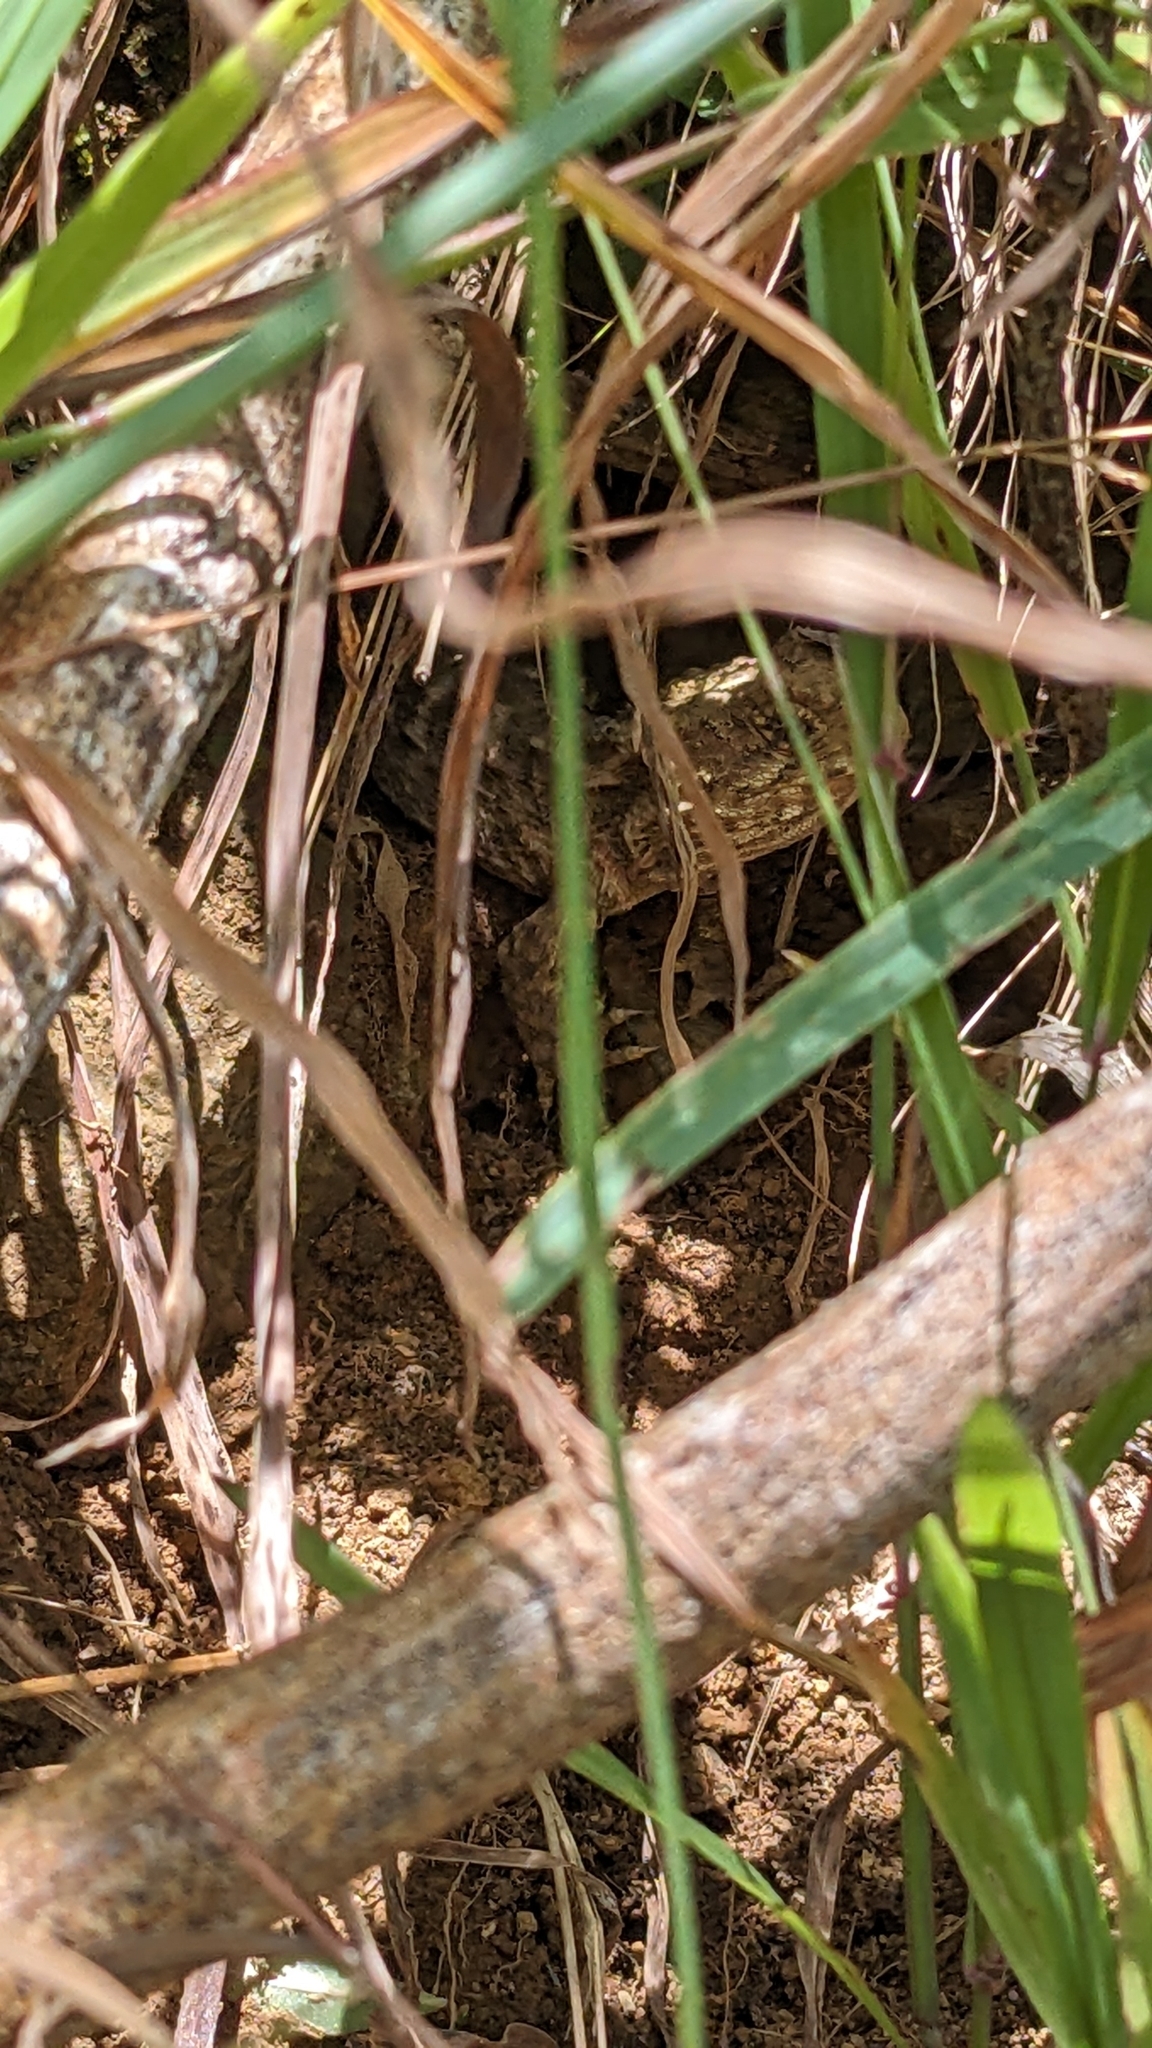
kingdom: Animalia
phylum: Chordata
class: Sphenodontia
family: Sphenodontidae
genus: Sphenodon
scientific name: Sphenodon punctatus
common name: Tuatara
